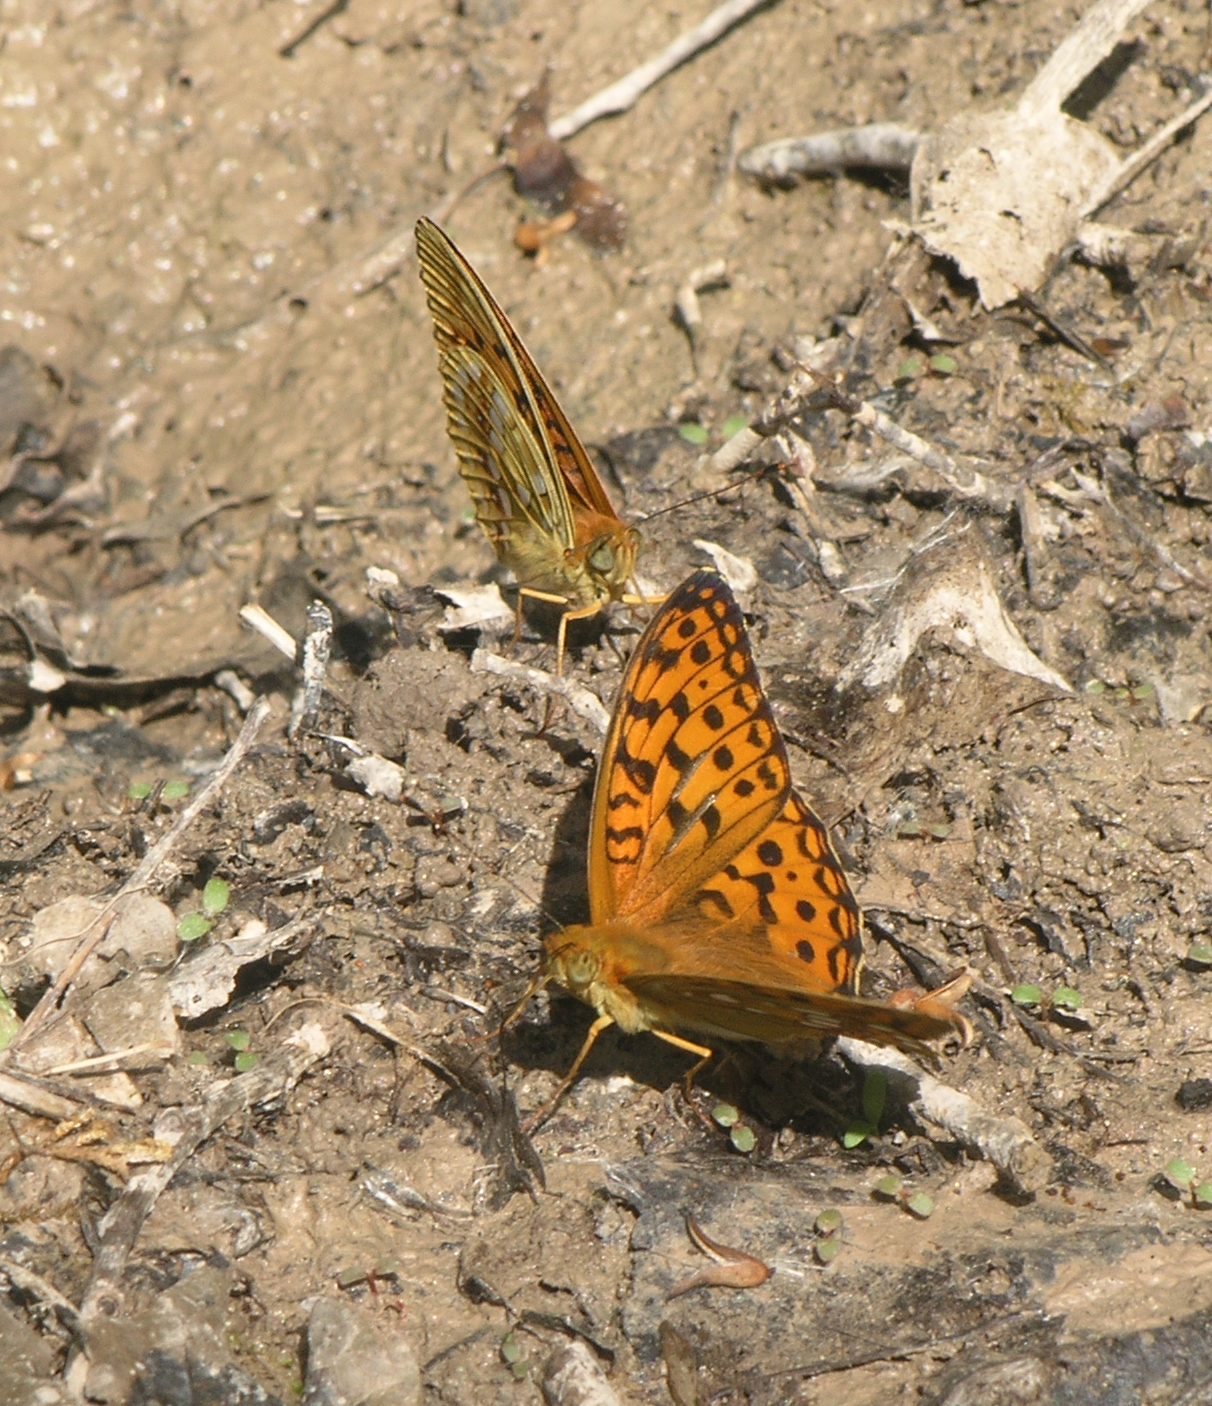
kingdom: Animalia
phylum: Arthropoda
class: Insecta
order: Lepidoptera
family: Nymphalidae
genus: Fabriciana
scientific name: Fabriciana adippe
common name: High brown fritillary
